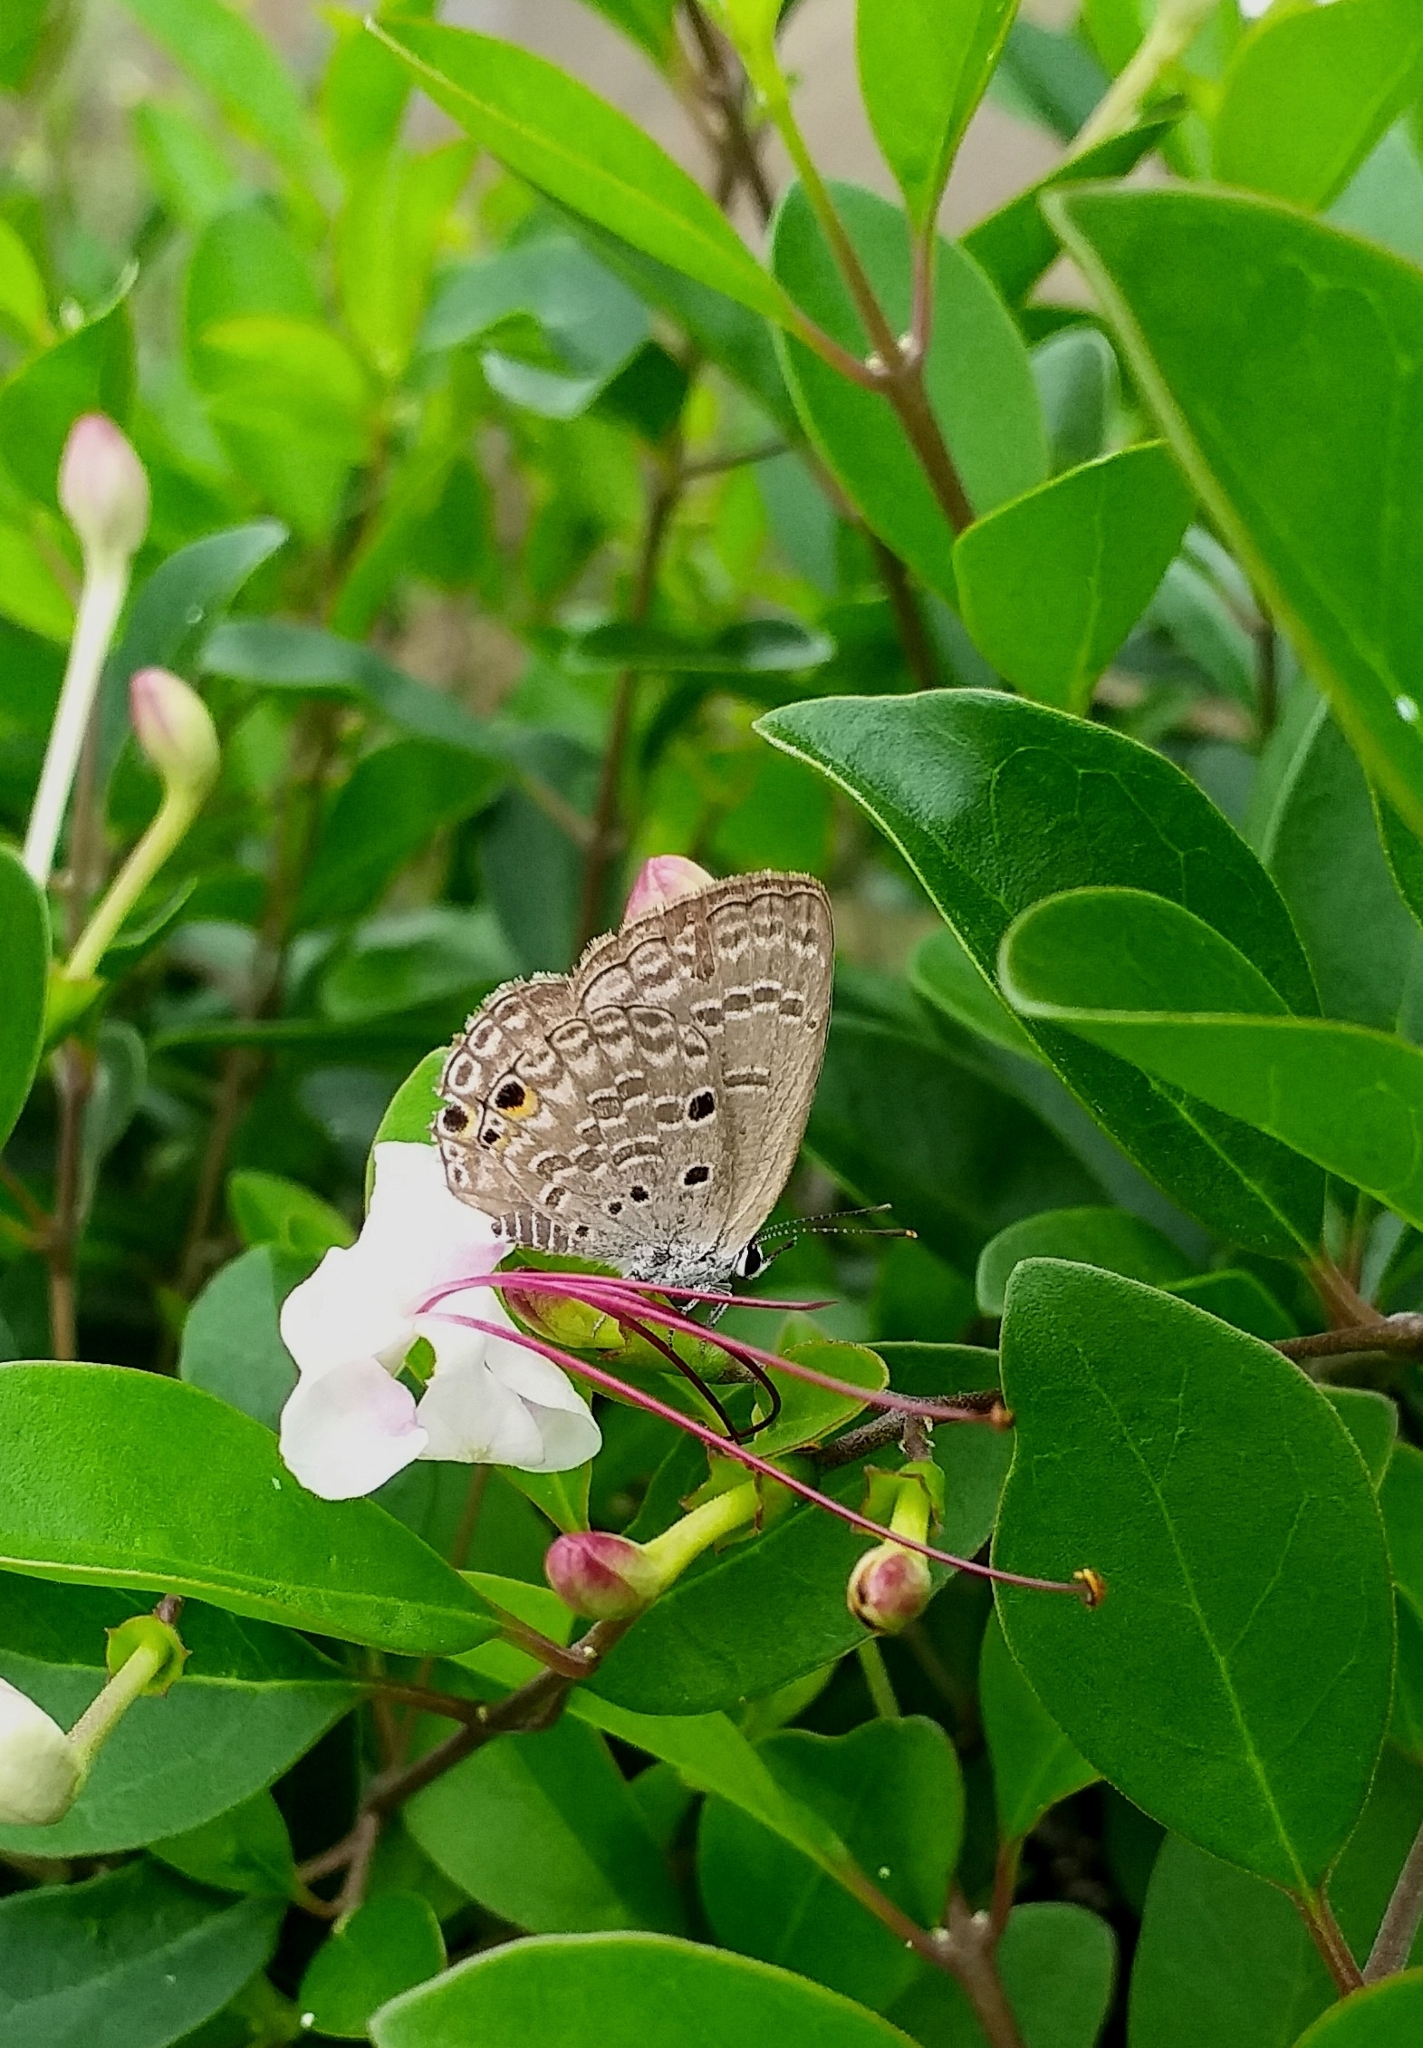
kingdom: Animalia
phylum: Arthropoda
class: Insecta
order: Lepidoptera
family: Lycaenidae
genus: Luthrodes
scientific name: Luthrodes pandava
